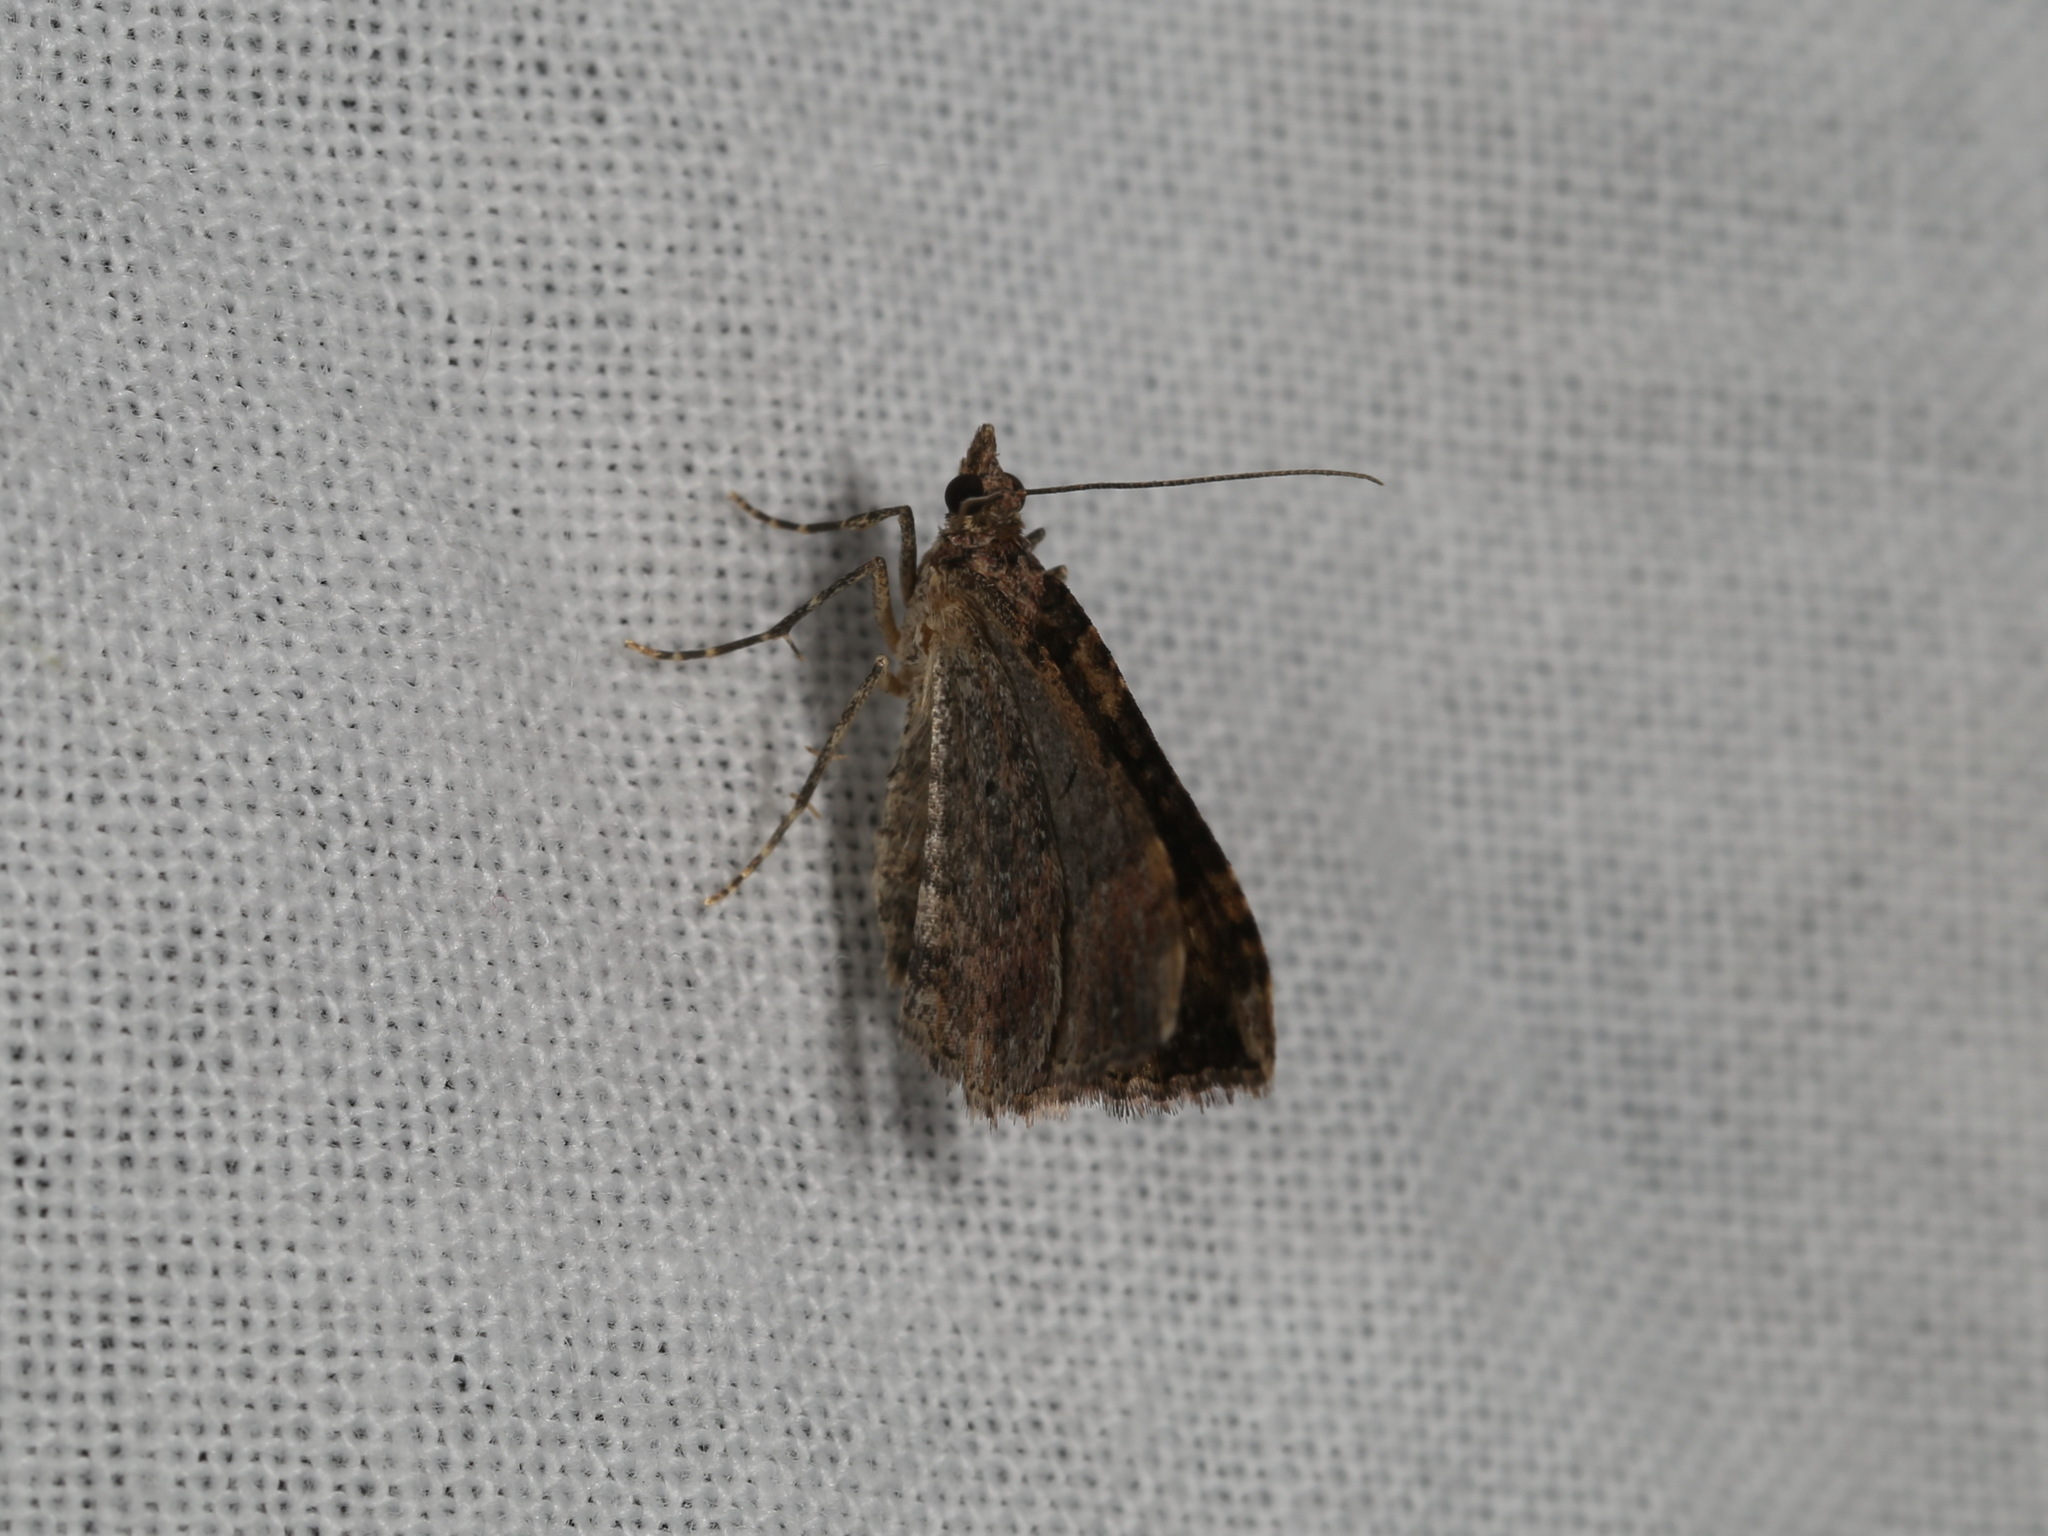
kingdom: Animalia
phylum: Arthropoda
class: Insecta
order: Lepidoptera
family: Geometridae
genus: Epyaxa
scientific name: Epyaxa subidaria
